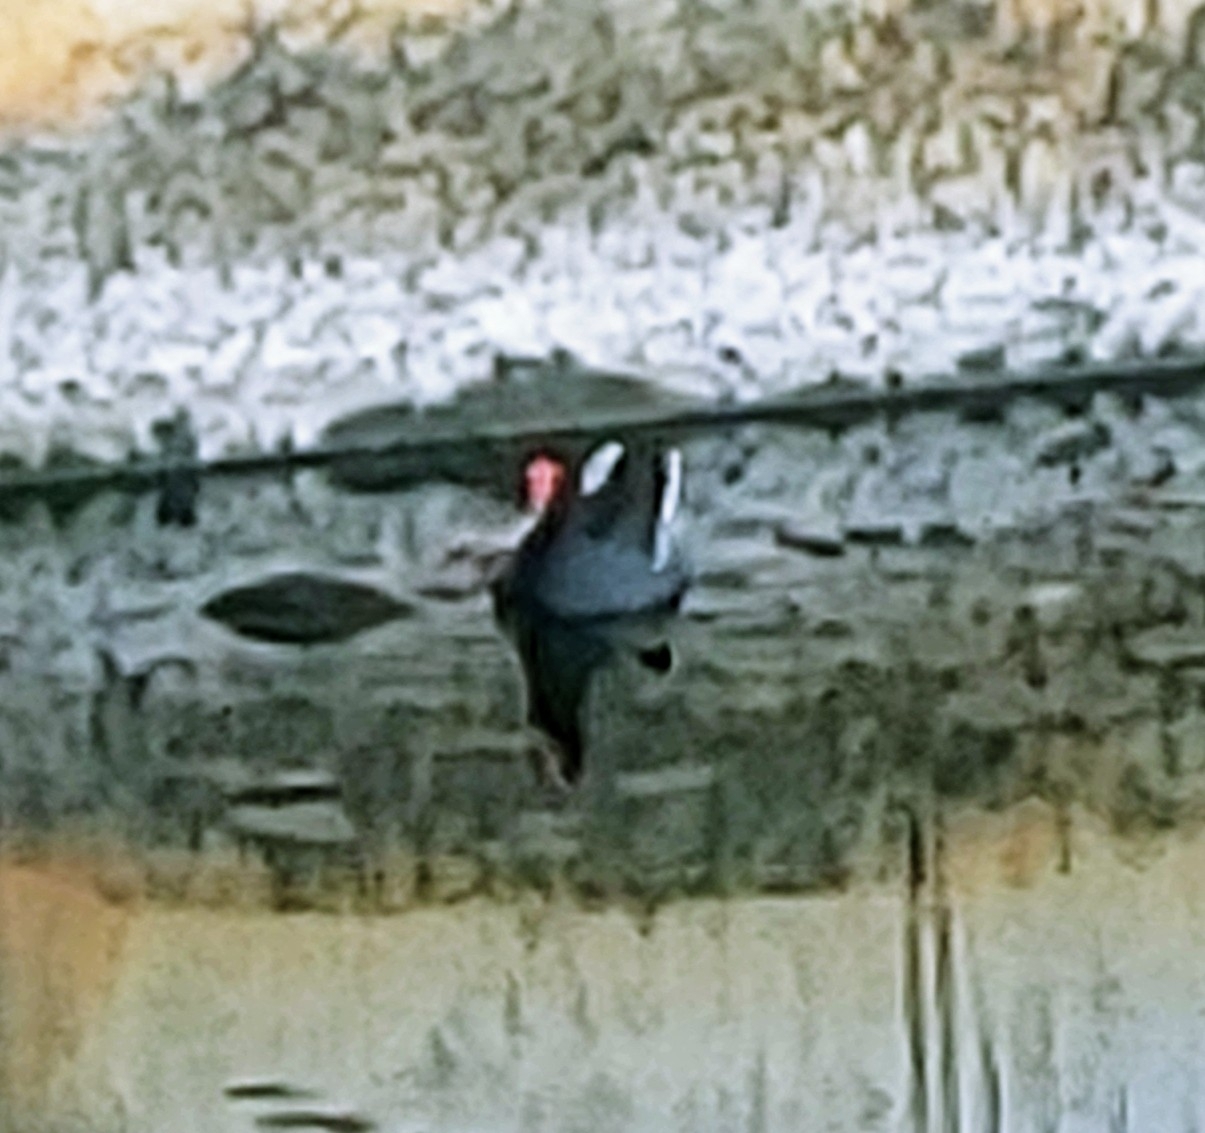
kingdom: Animalia
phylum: Chordata
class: Aves
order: Gruiformes
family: Rallidae
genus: Gallinula
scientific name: Gallinula chloropus
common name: Common moorhen
